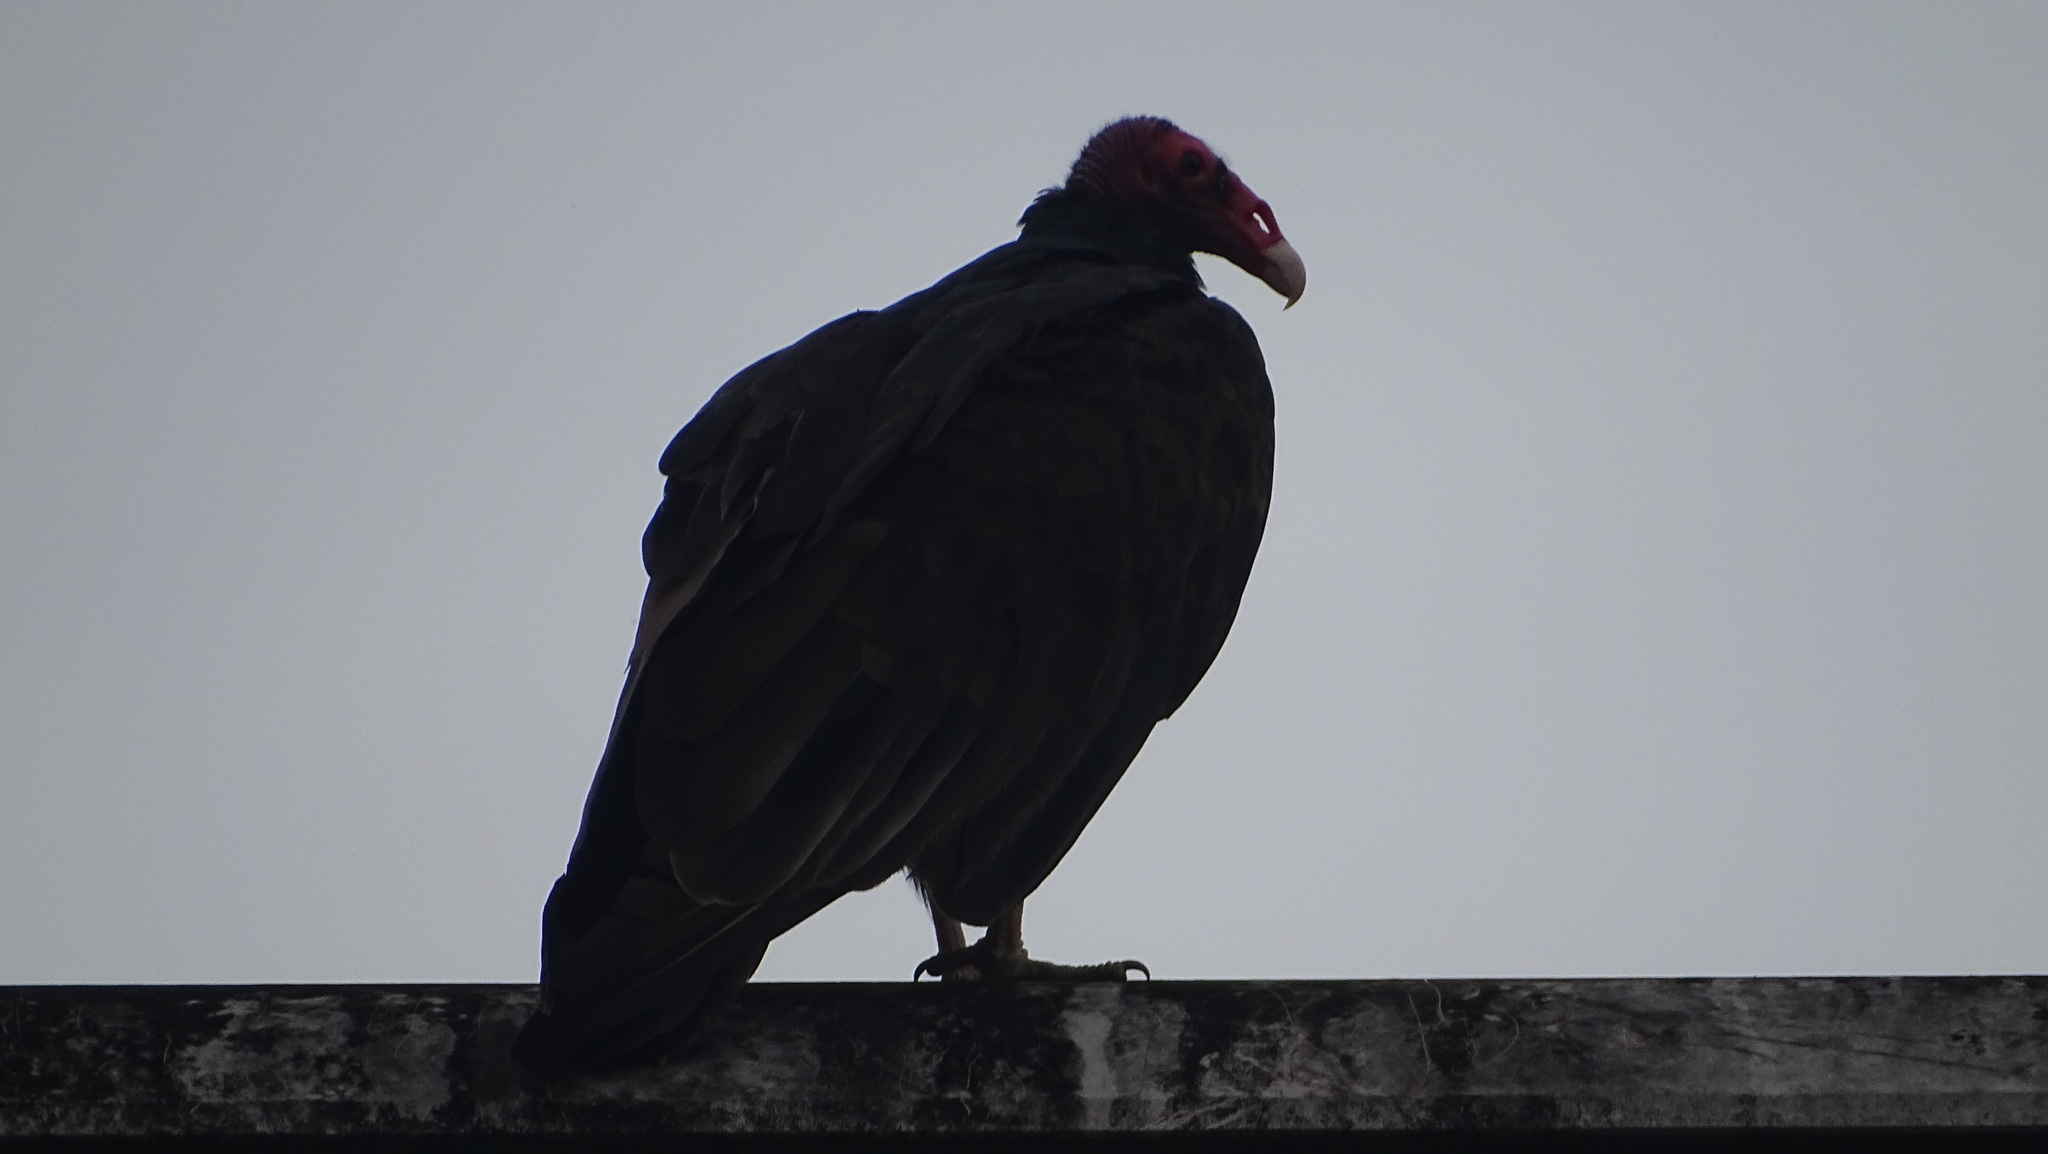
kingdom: Animalia
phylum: Chordata
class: Aves
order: Accipitriformes
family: Cathartidae
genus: Cathartes
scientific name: Cathartes aura
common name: Turkey vulture
